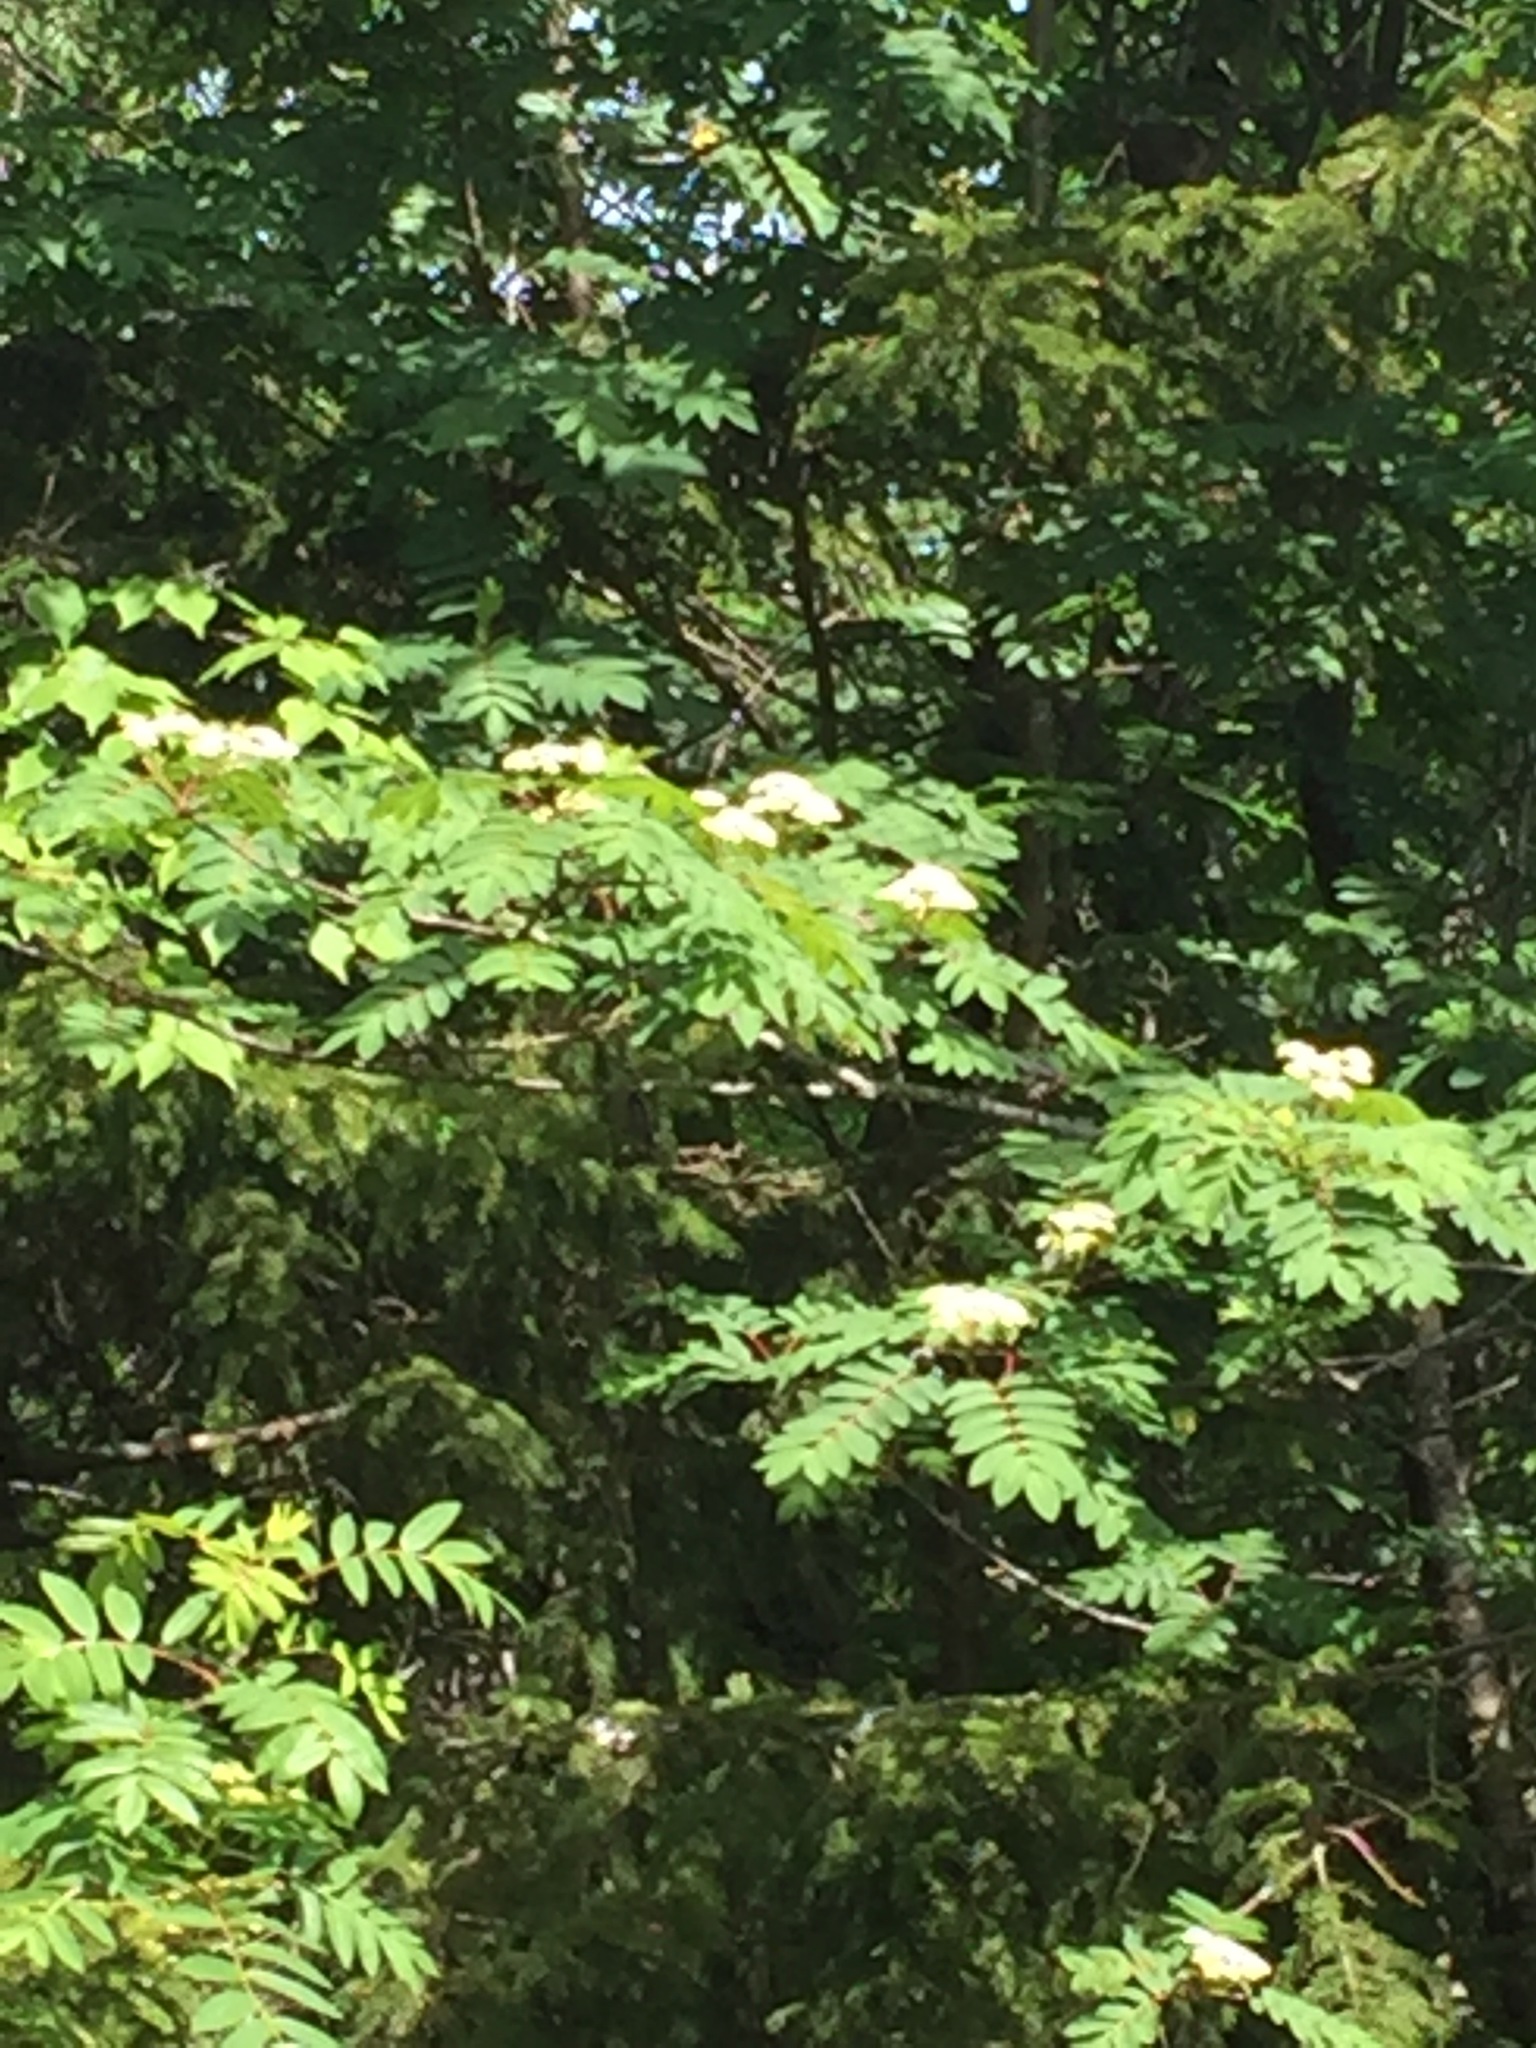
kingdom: Plantae
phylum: Tracheophyta
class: Magnoliopsida
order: Rosales
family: Rosaceae
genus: Sorbus
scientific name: Sorbus americana
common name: American mountain-ash
